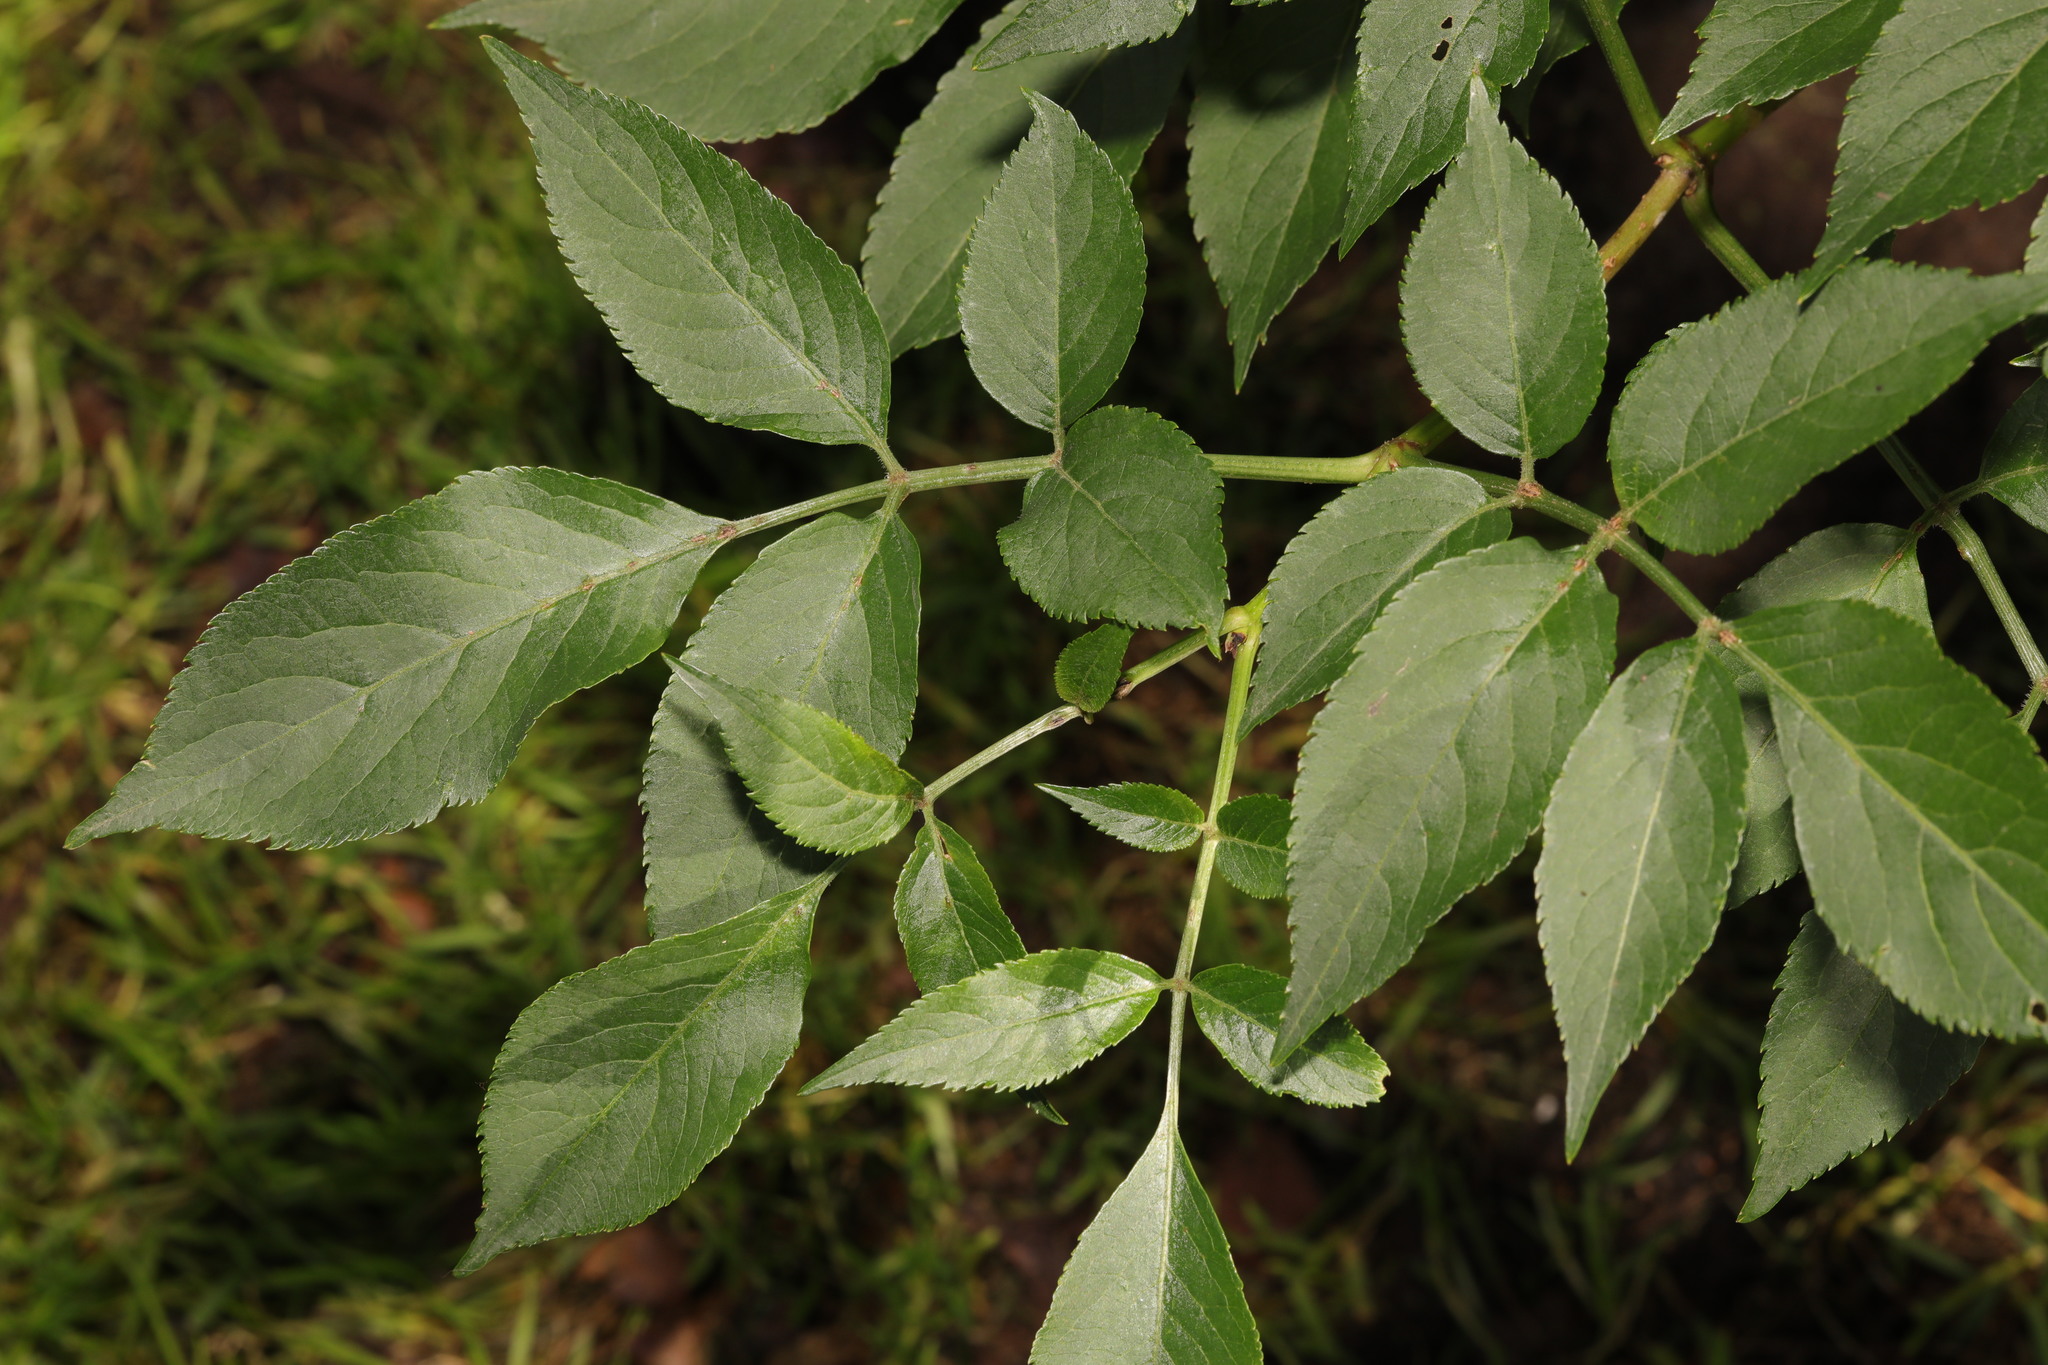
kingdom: Plantae
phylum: Tracheophyta
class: Magnoliopsida
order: Dipsacales
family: Viburnaceae
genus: Sambucus
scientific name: Sambucus nigra
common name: Elder
